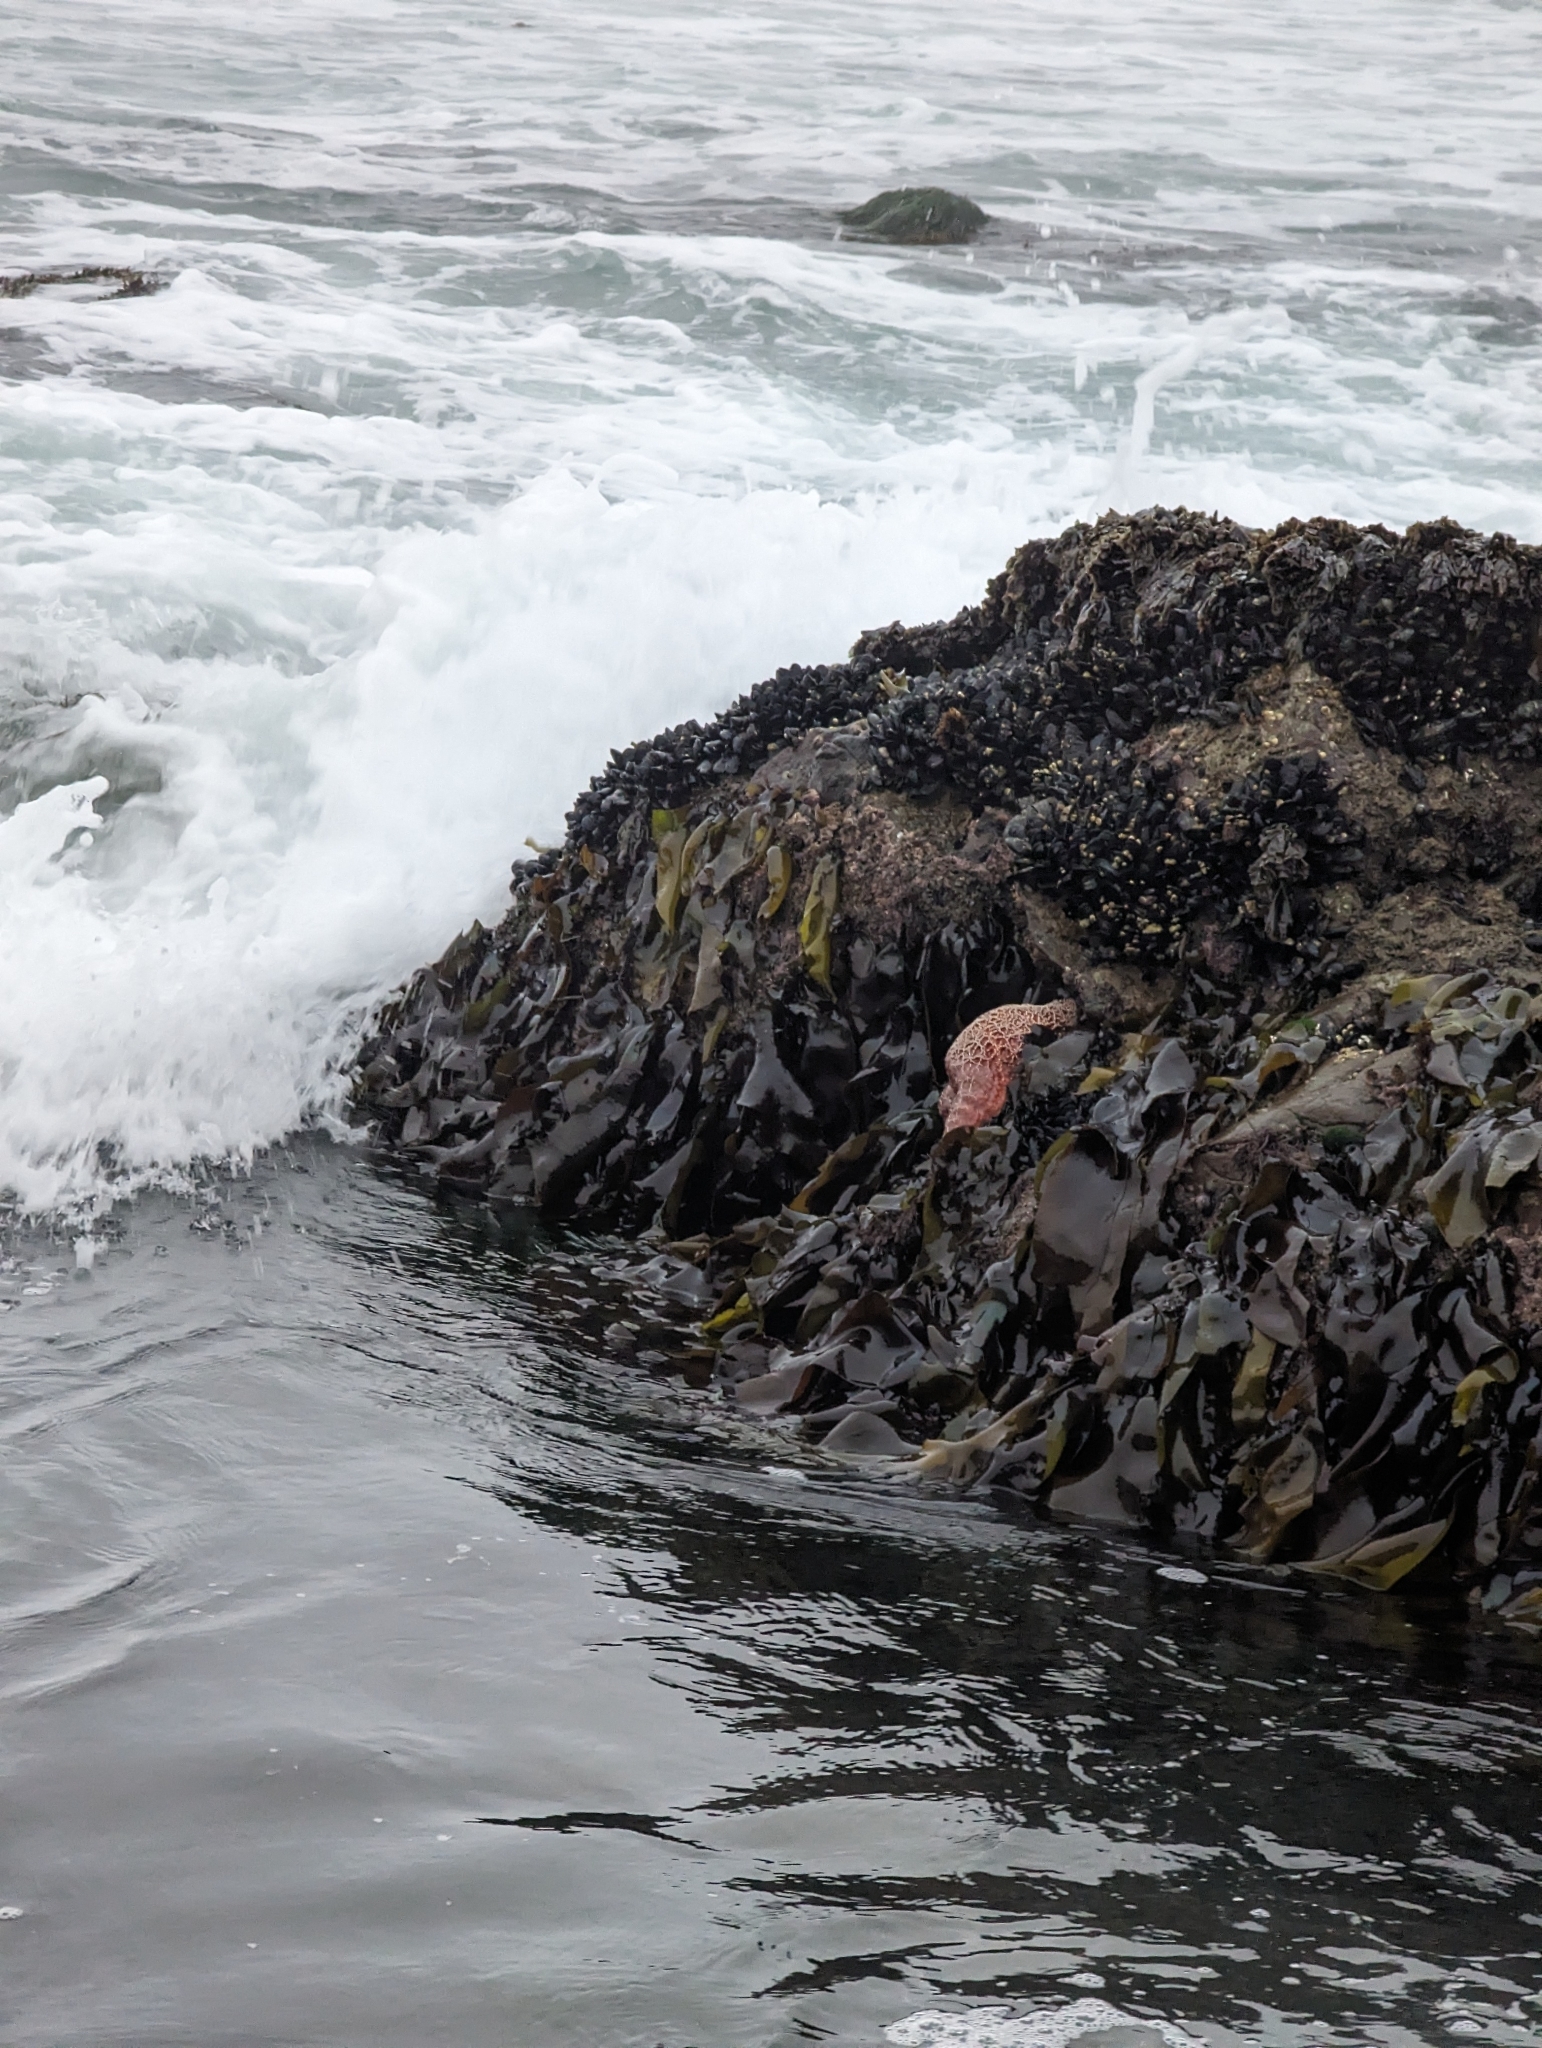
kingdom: Animalia
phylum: Echinodermata
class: Asteroidea
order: Forcipulatida
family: Asteriidae
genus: Pisaster
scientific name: Pisaster ochraceus
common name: Ochre stars
